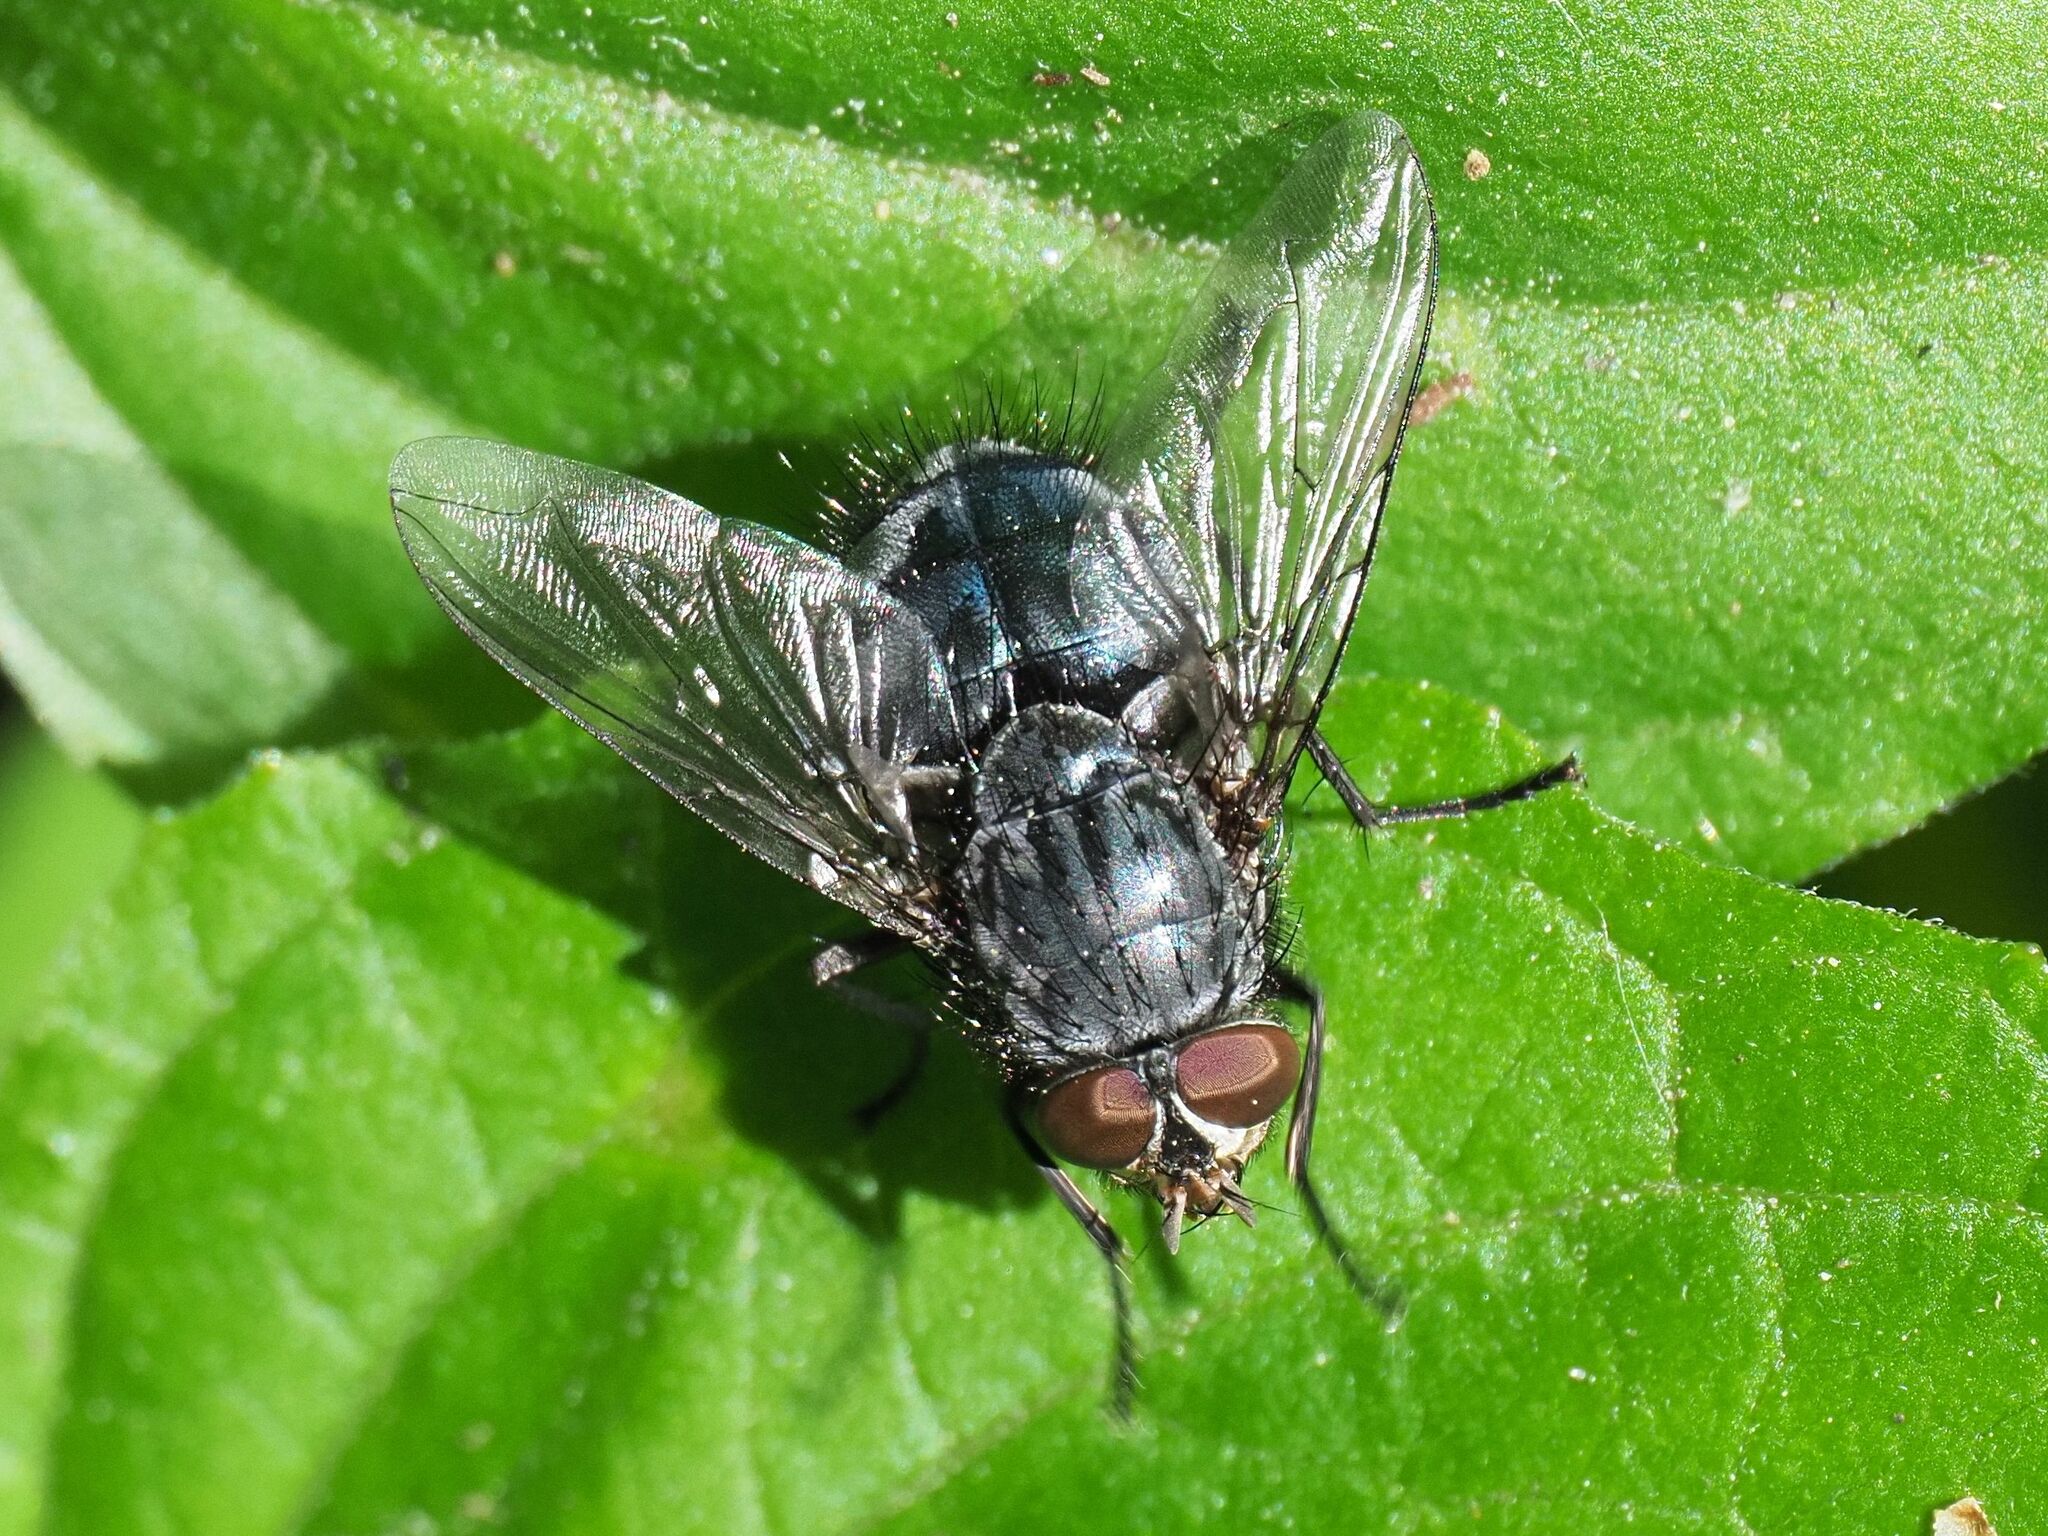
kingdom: Animalia
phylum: Arthropoda
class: Insecta
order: Diptera
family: Calliphoridae
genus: Calliphora
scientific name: Calliphora vicina
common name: Common blow flie
